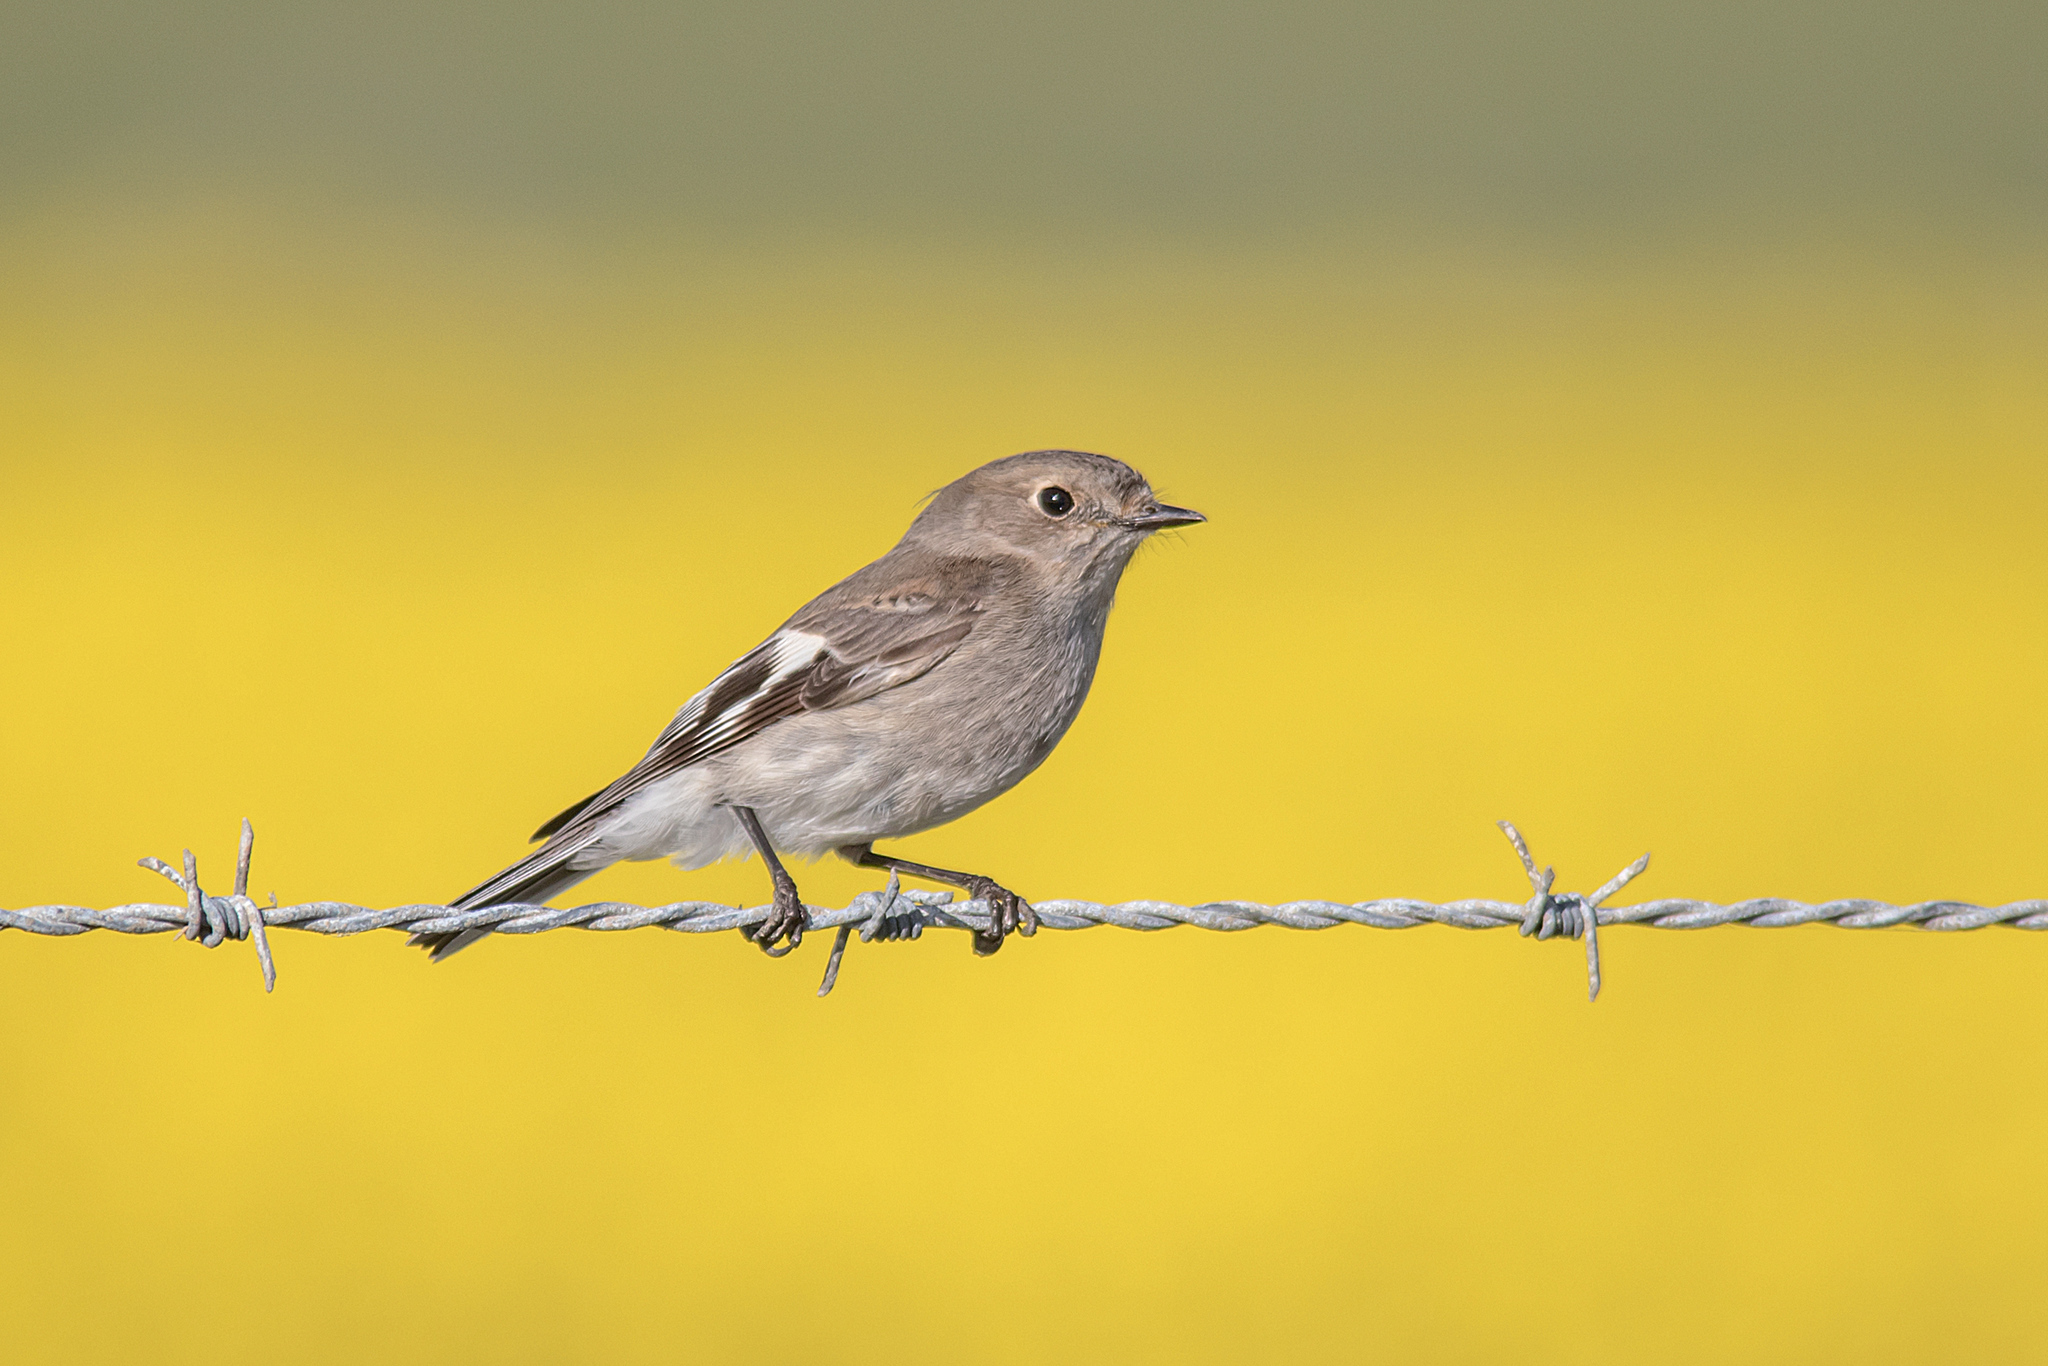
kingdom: Animalia
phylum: Chordata
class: Aves
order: Passeriformes
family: Petroicidae
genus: Petroica
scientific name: Petroica phoenicea
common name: Flame robin
